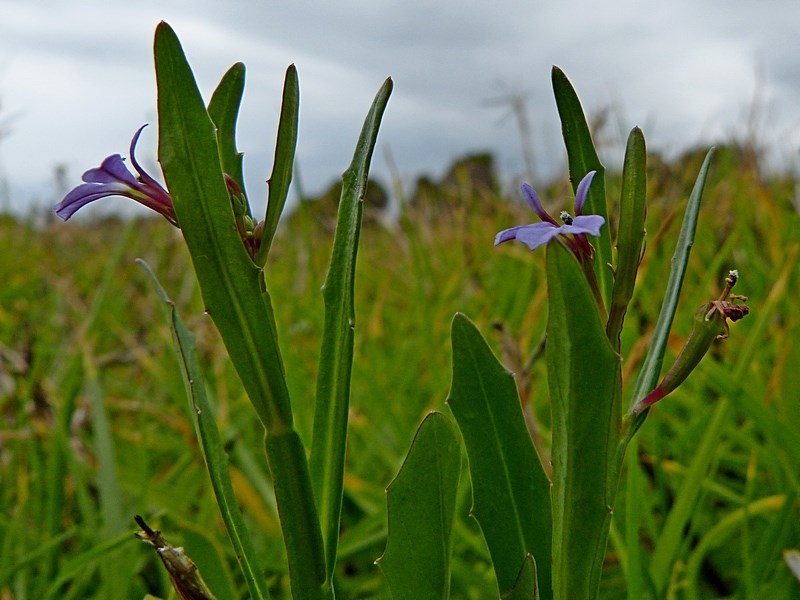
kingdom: Plantae
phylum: Tracheophyta
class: Magnoliopsida
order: Asterales
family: Campanulaceae
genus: Lobelia
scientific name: Lobelia anceps
